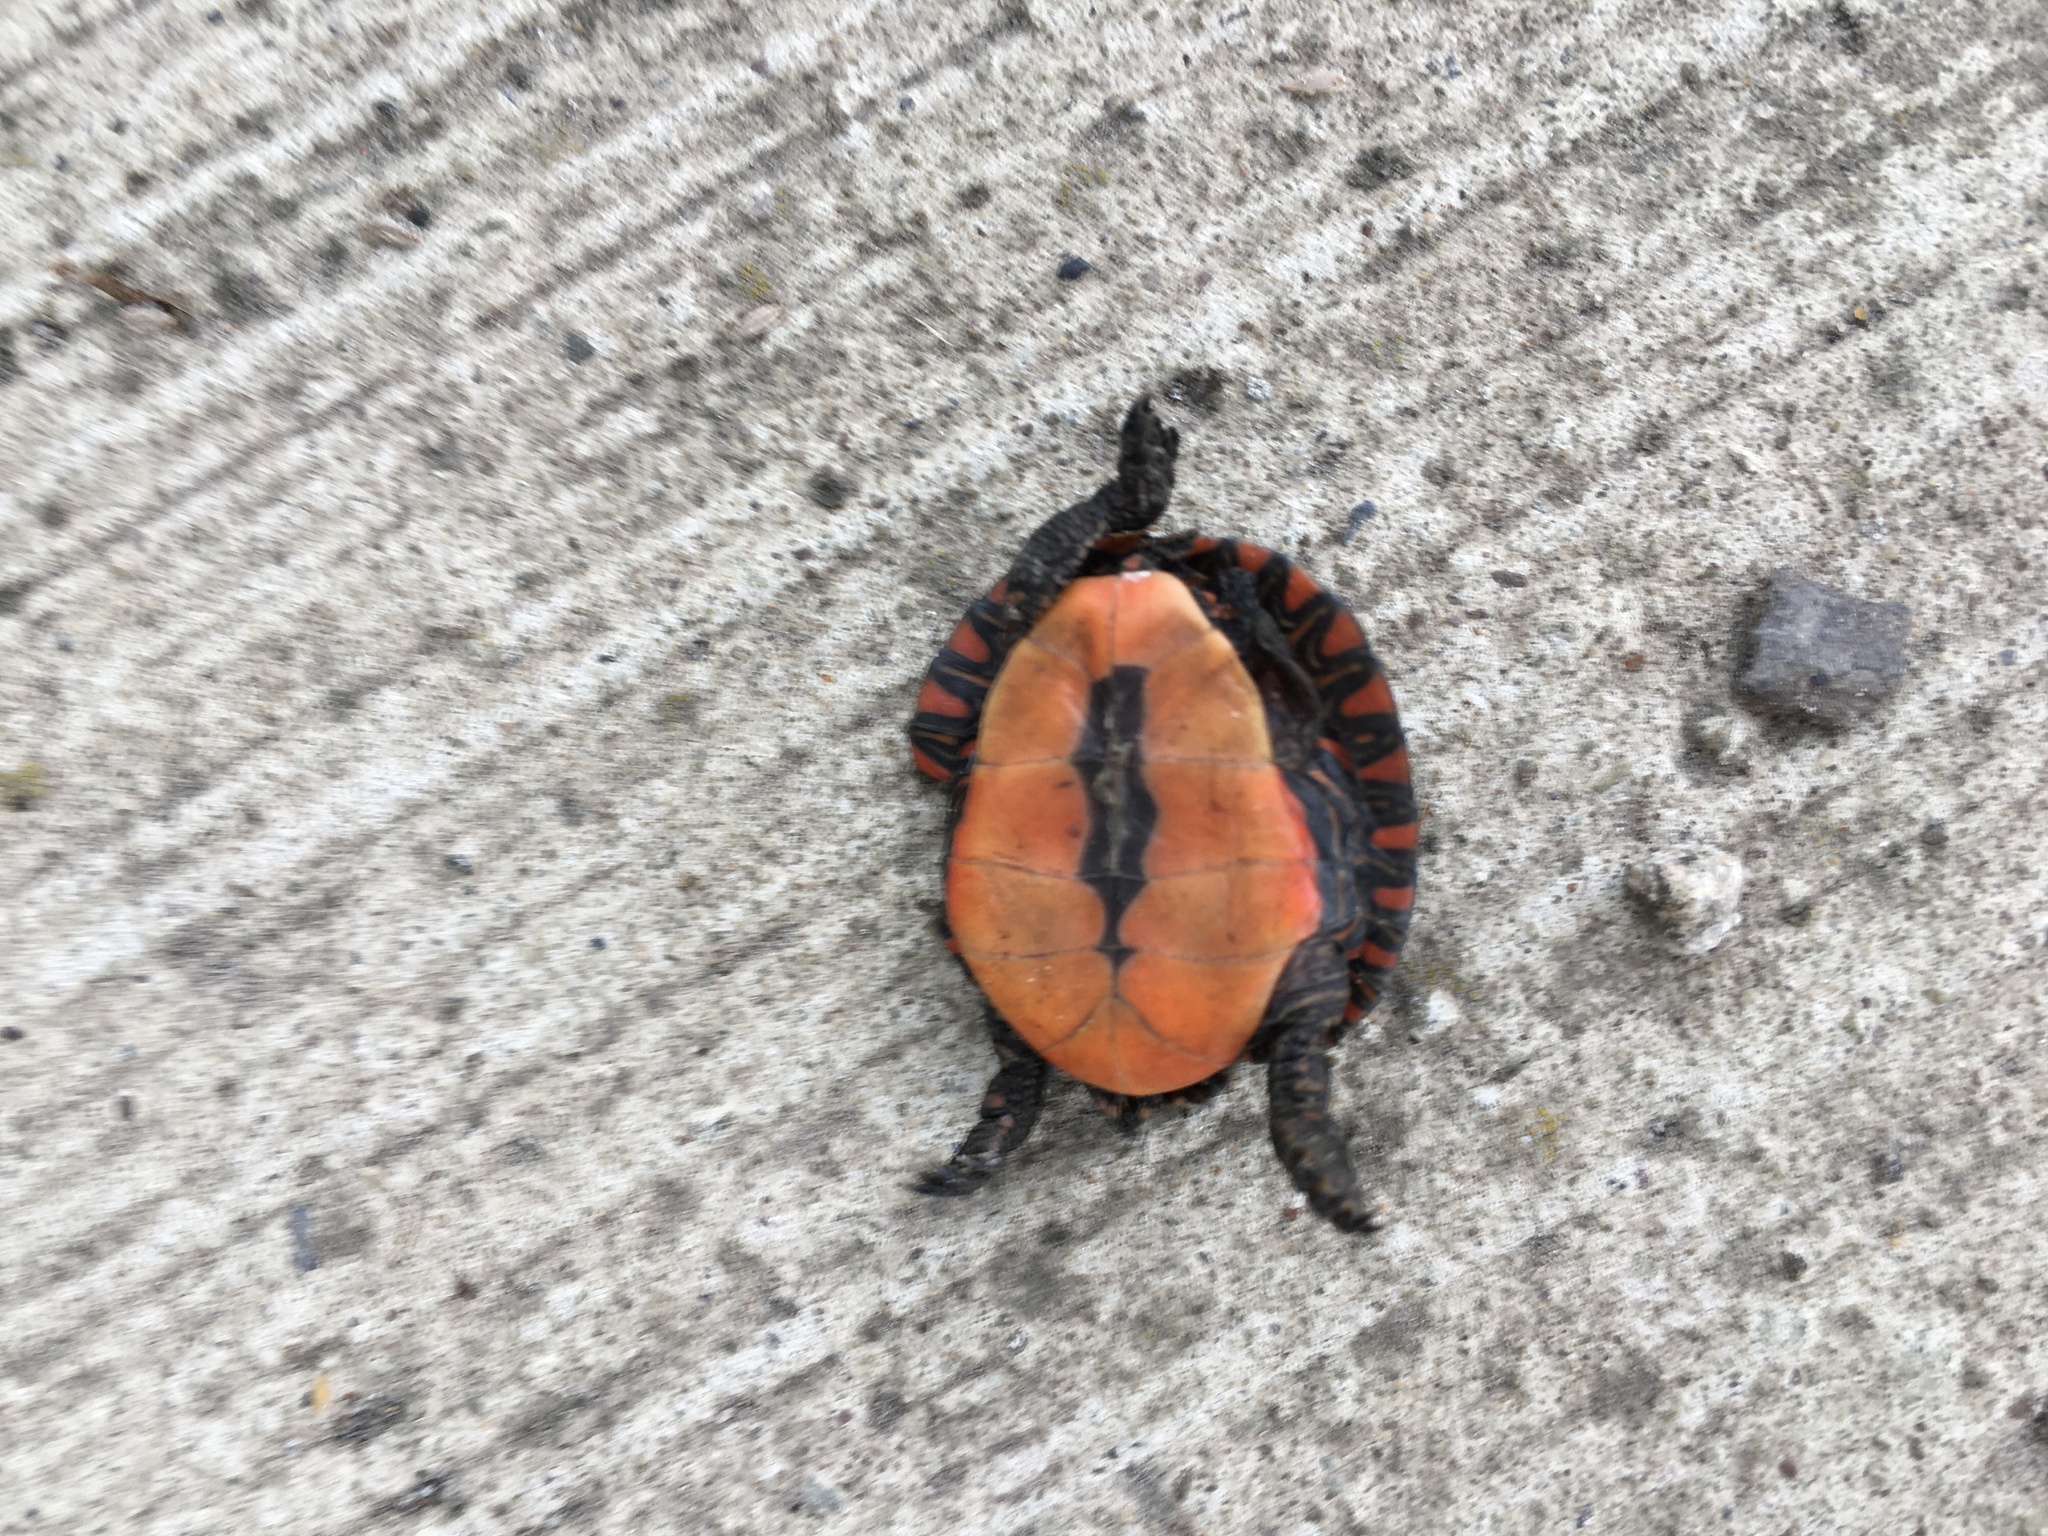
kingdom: Animalia
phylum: Chordata
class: Testudines
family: Emydidae
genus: Chrysemys
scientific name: Chrysemys picta
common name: Painted turtle
